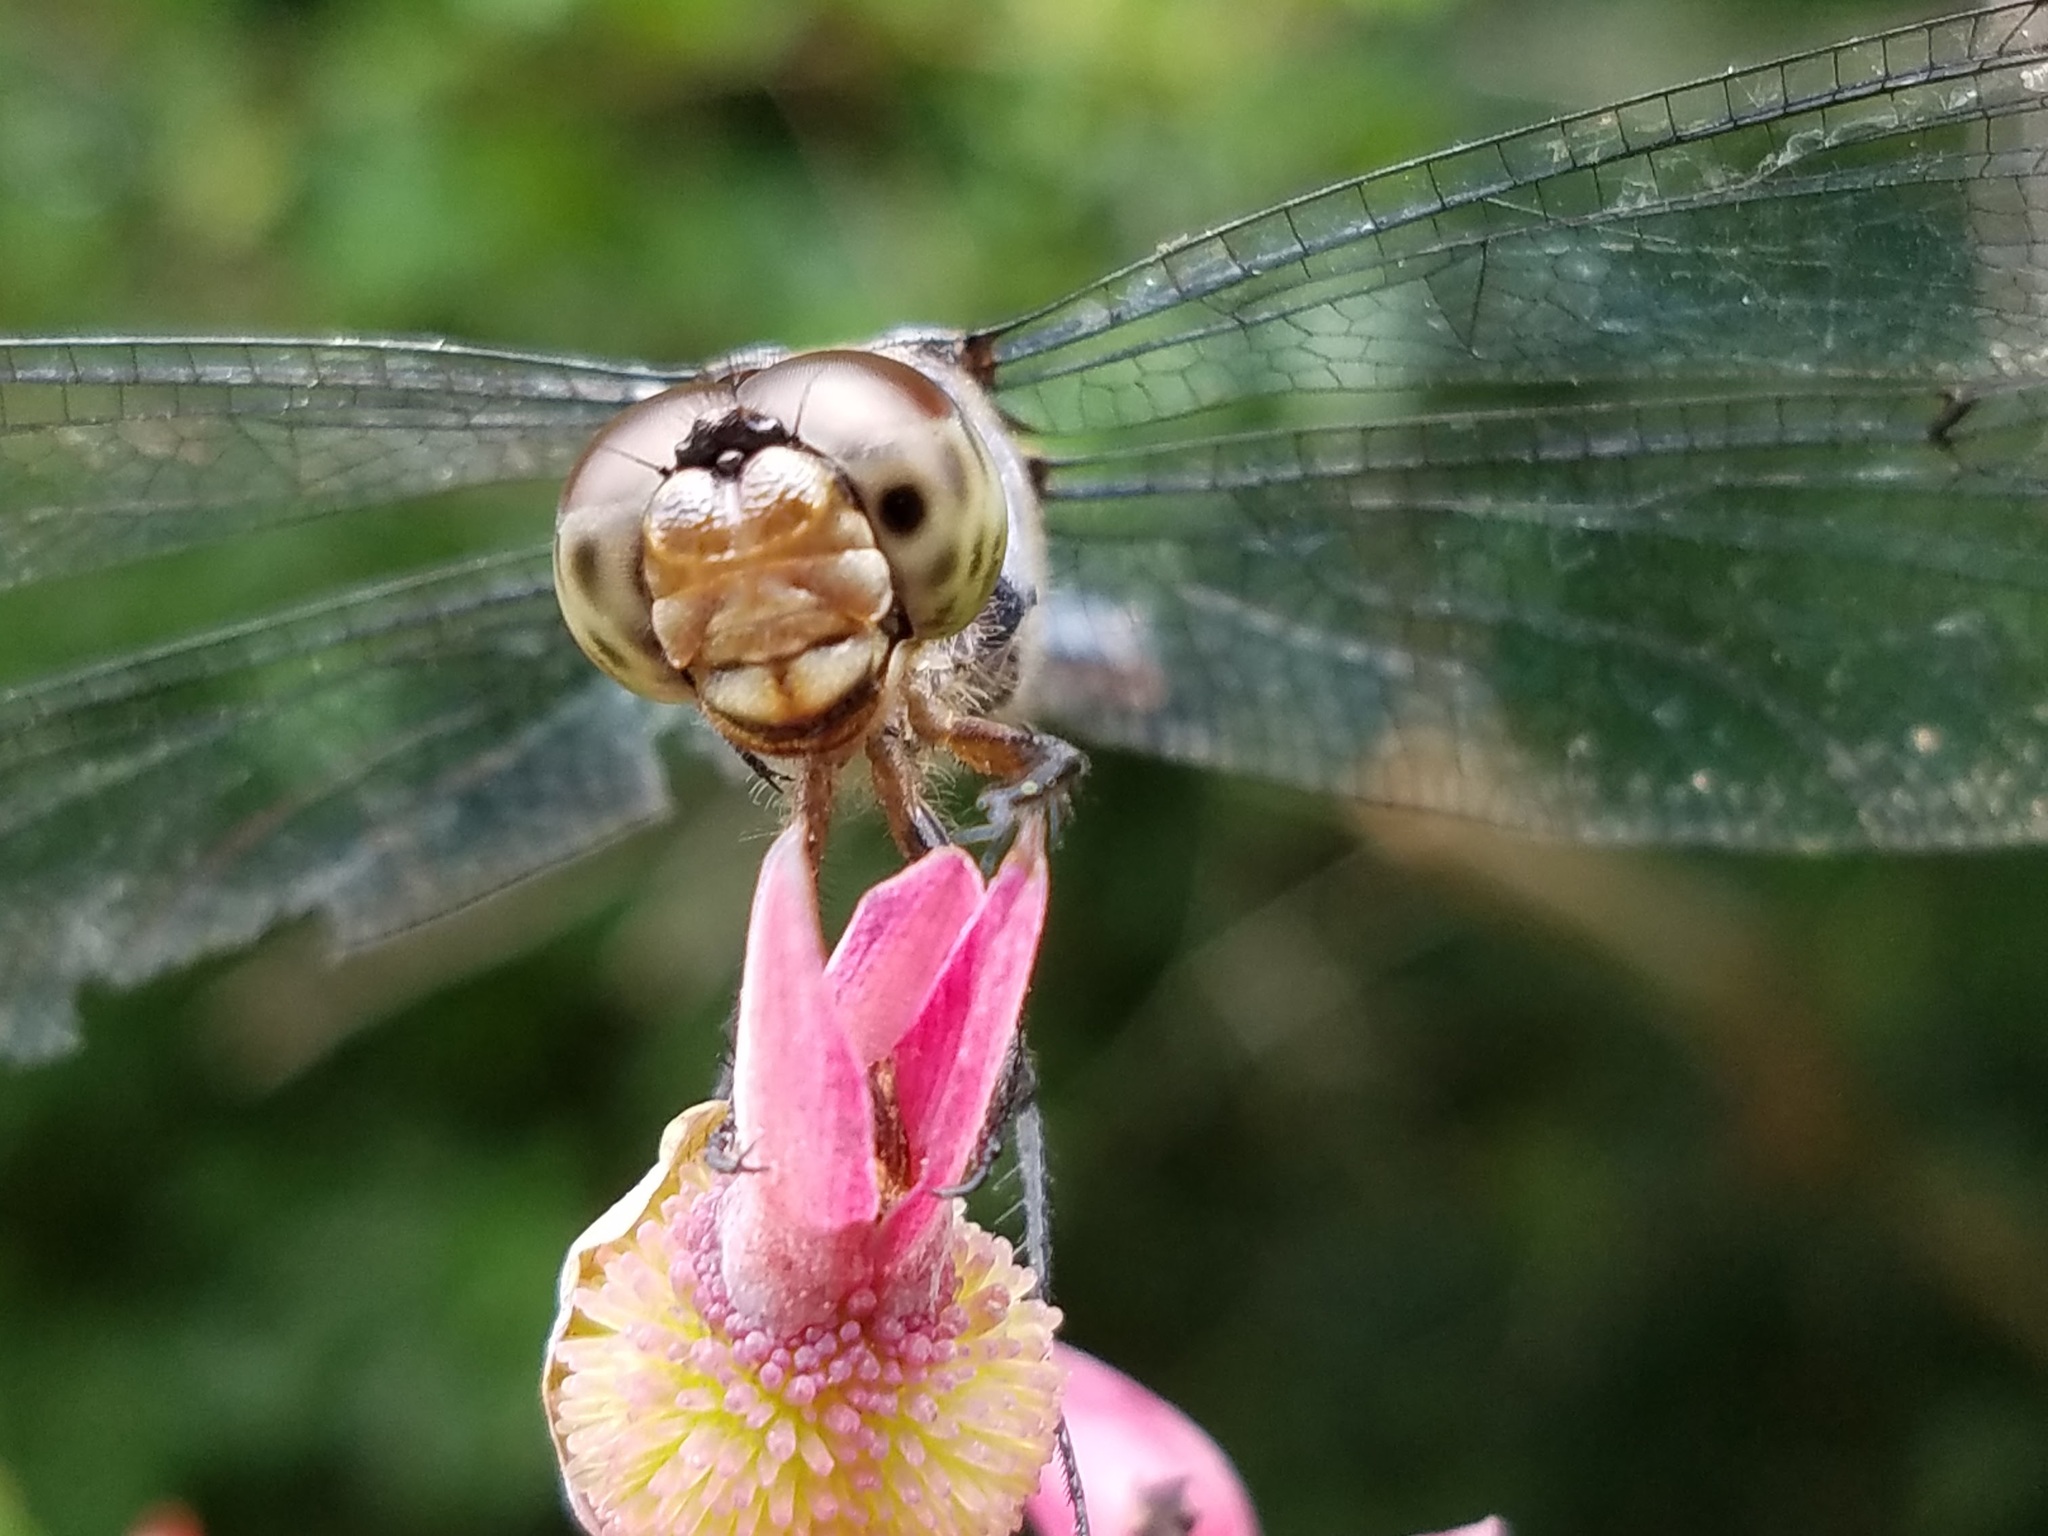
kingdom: Animalia
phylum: Arthropoda
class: Insecta
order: Odonata
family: Libellulidae
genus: Libellula
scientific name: Libellula incesta
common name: Slaty skimmer
